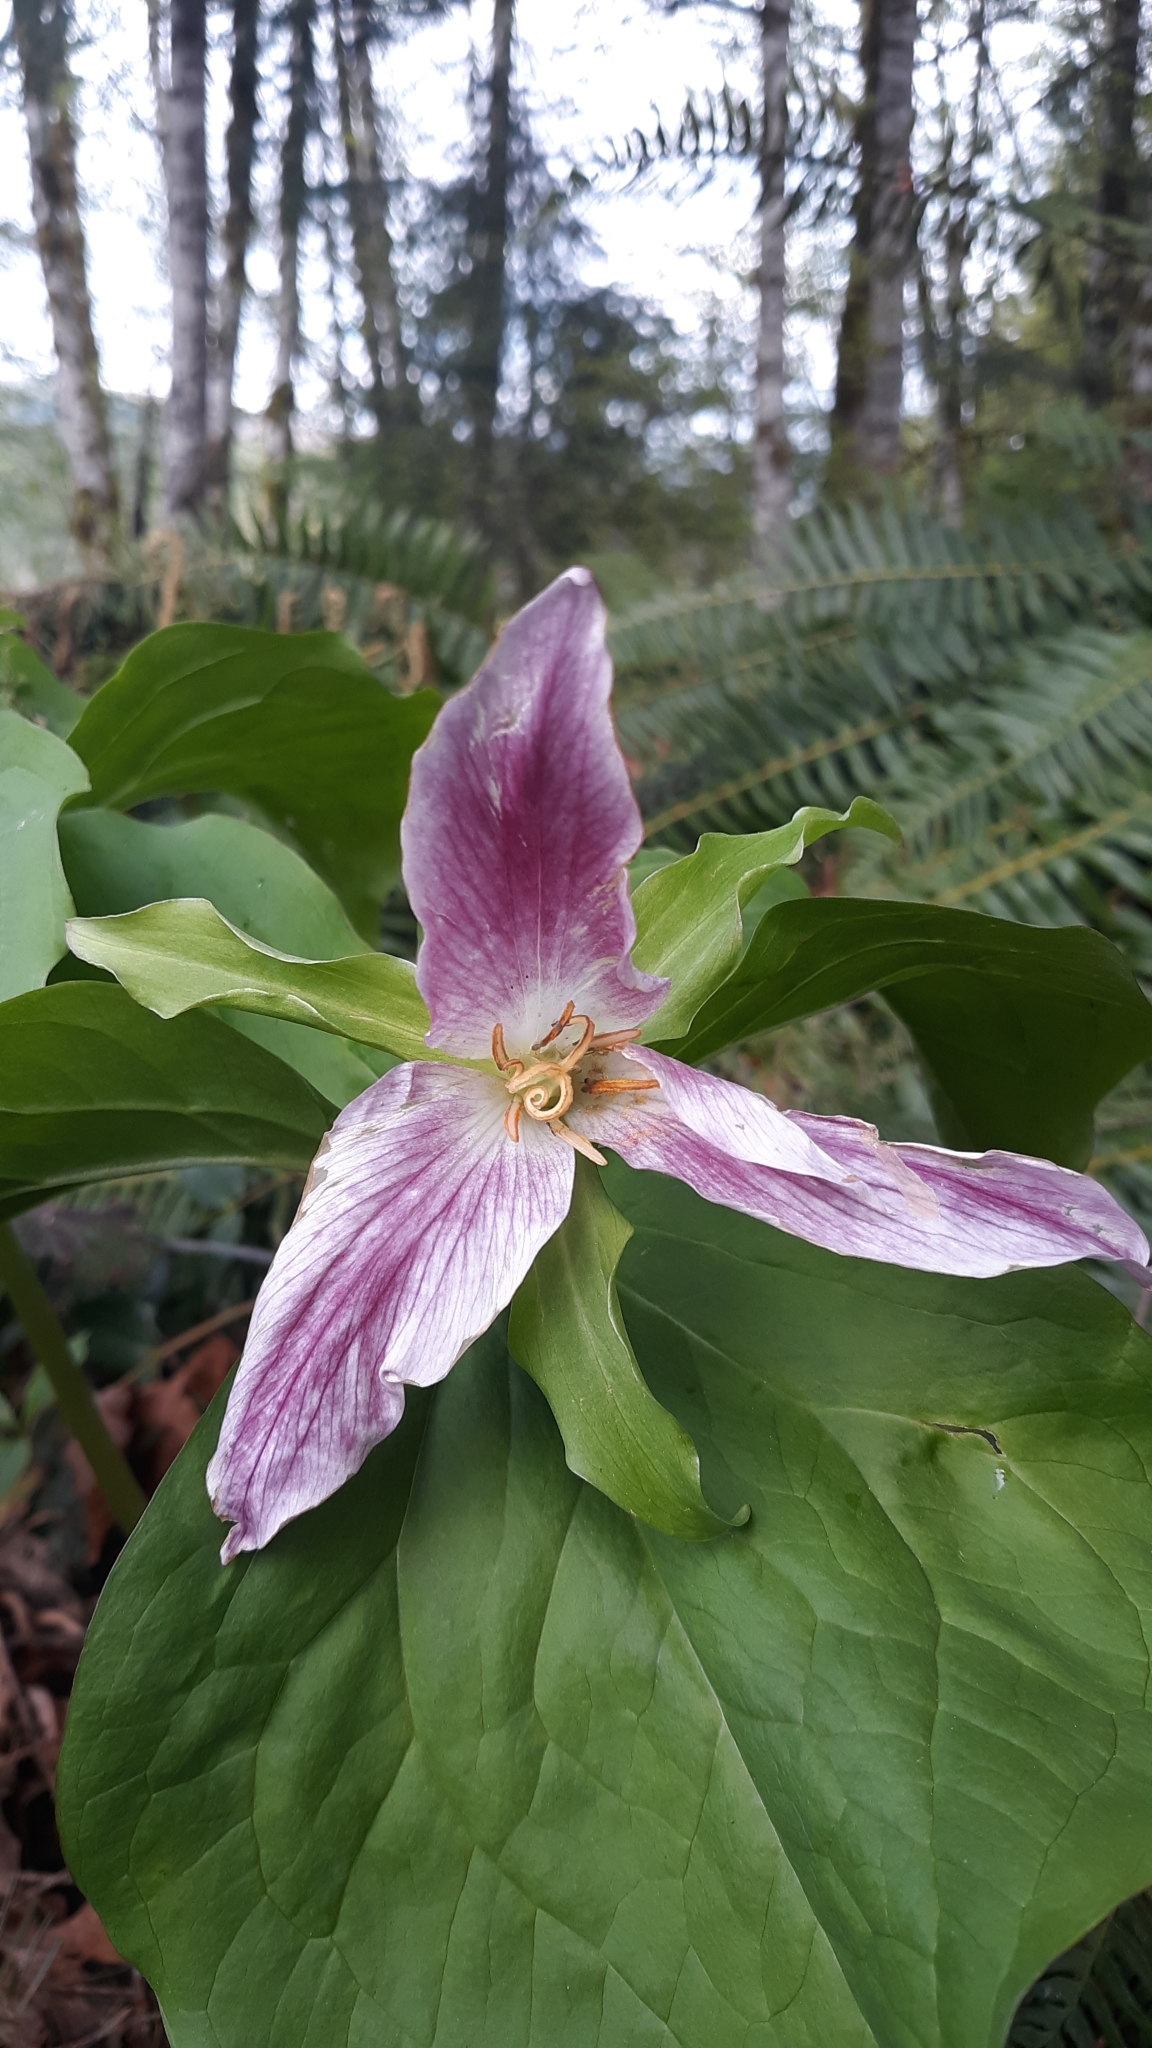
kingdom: Plantae
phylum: Tracheophyta
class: Liliopsida
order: Liliales
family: Melanthiaceae
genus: Trillium
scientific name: Trillium ovatum
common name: Pacific trillium
